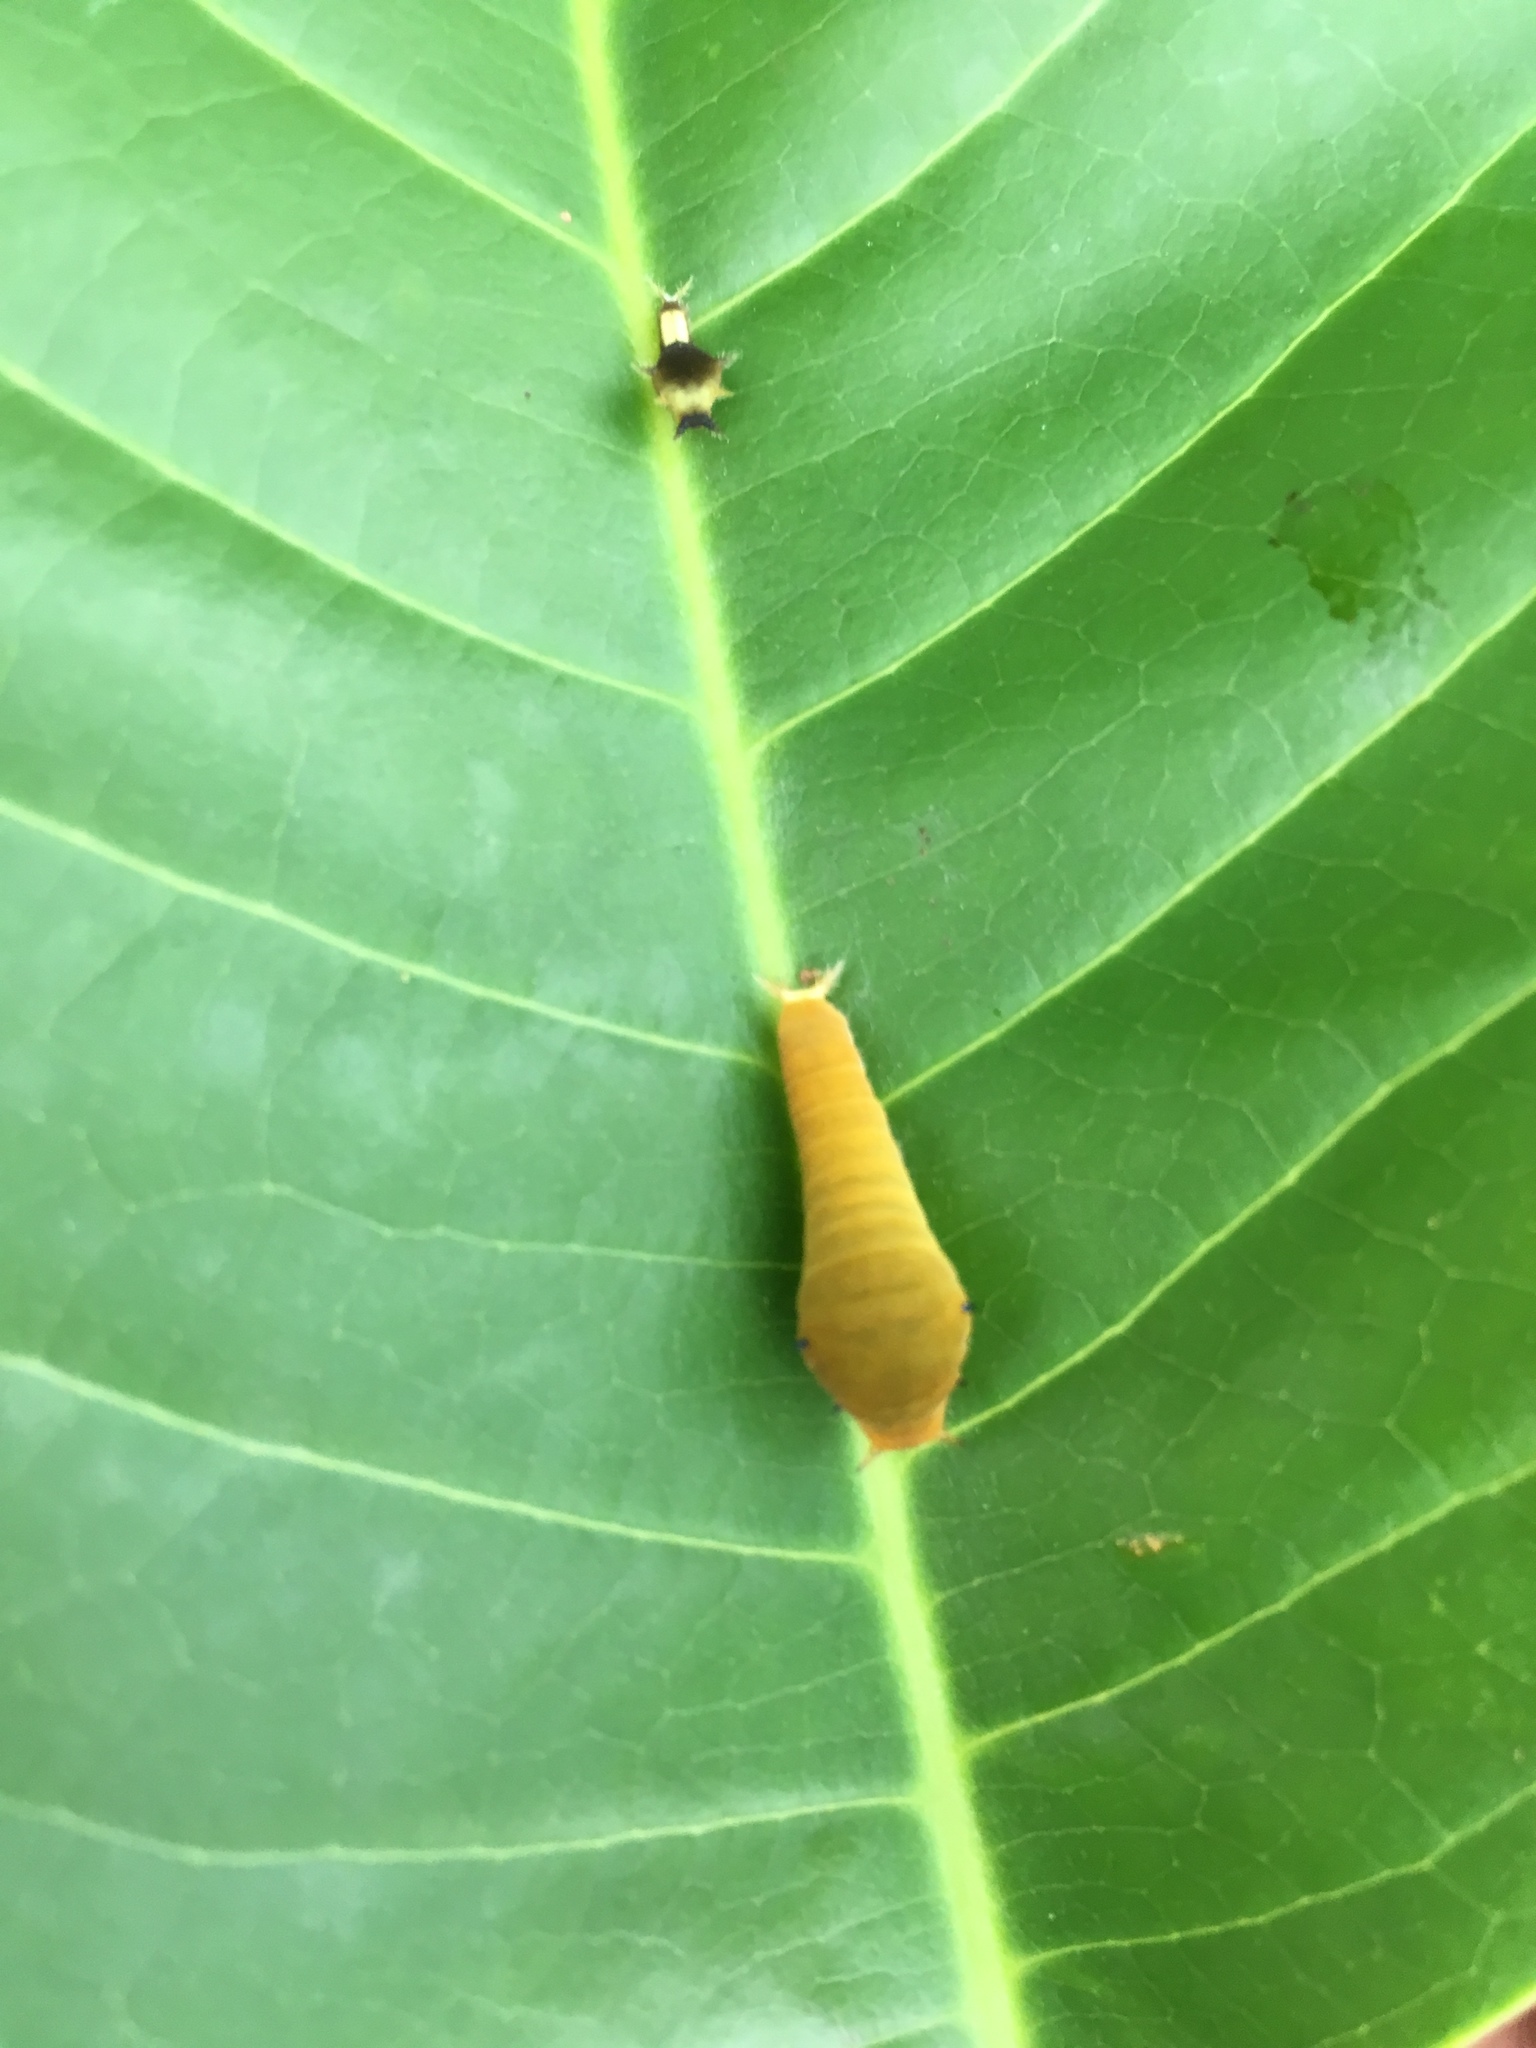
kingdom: Animalia
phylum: Arthropoda
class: Insecta
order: Lepidoptera
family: Papilionidae
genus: Graphium
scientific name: Graphium doson
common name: Common jay
